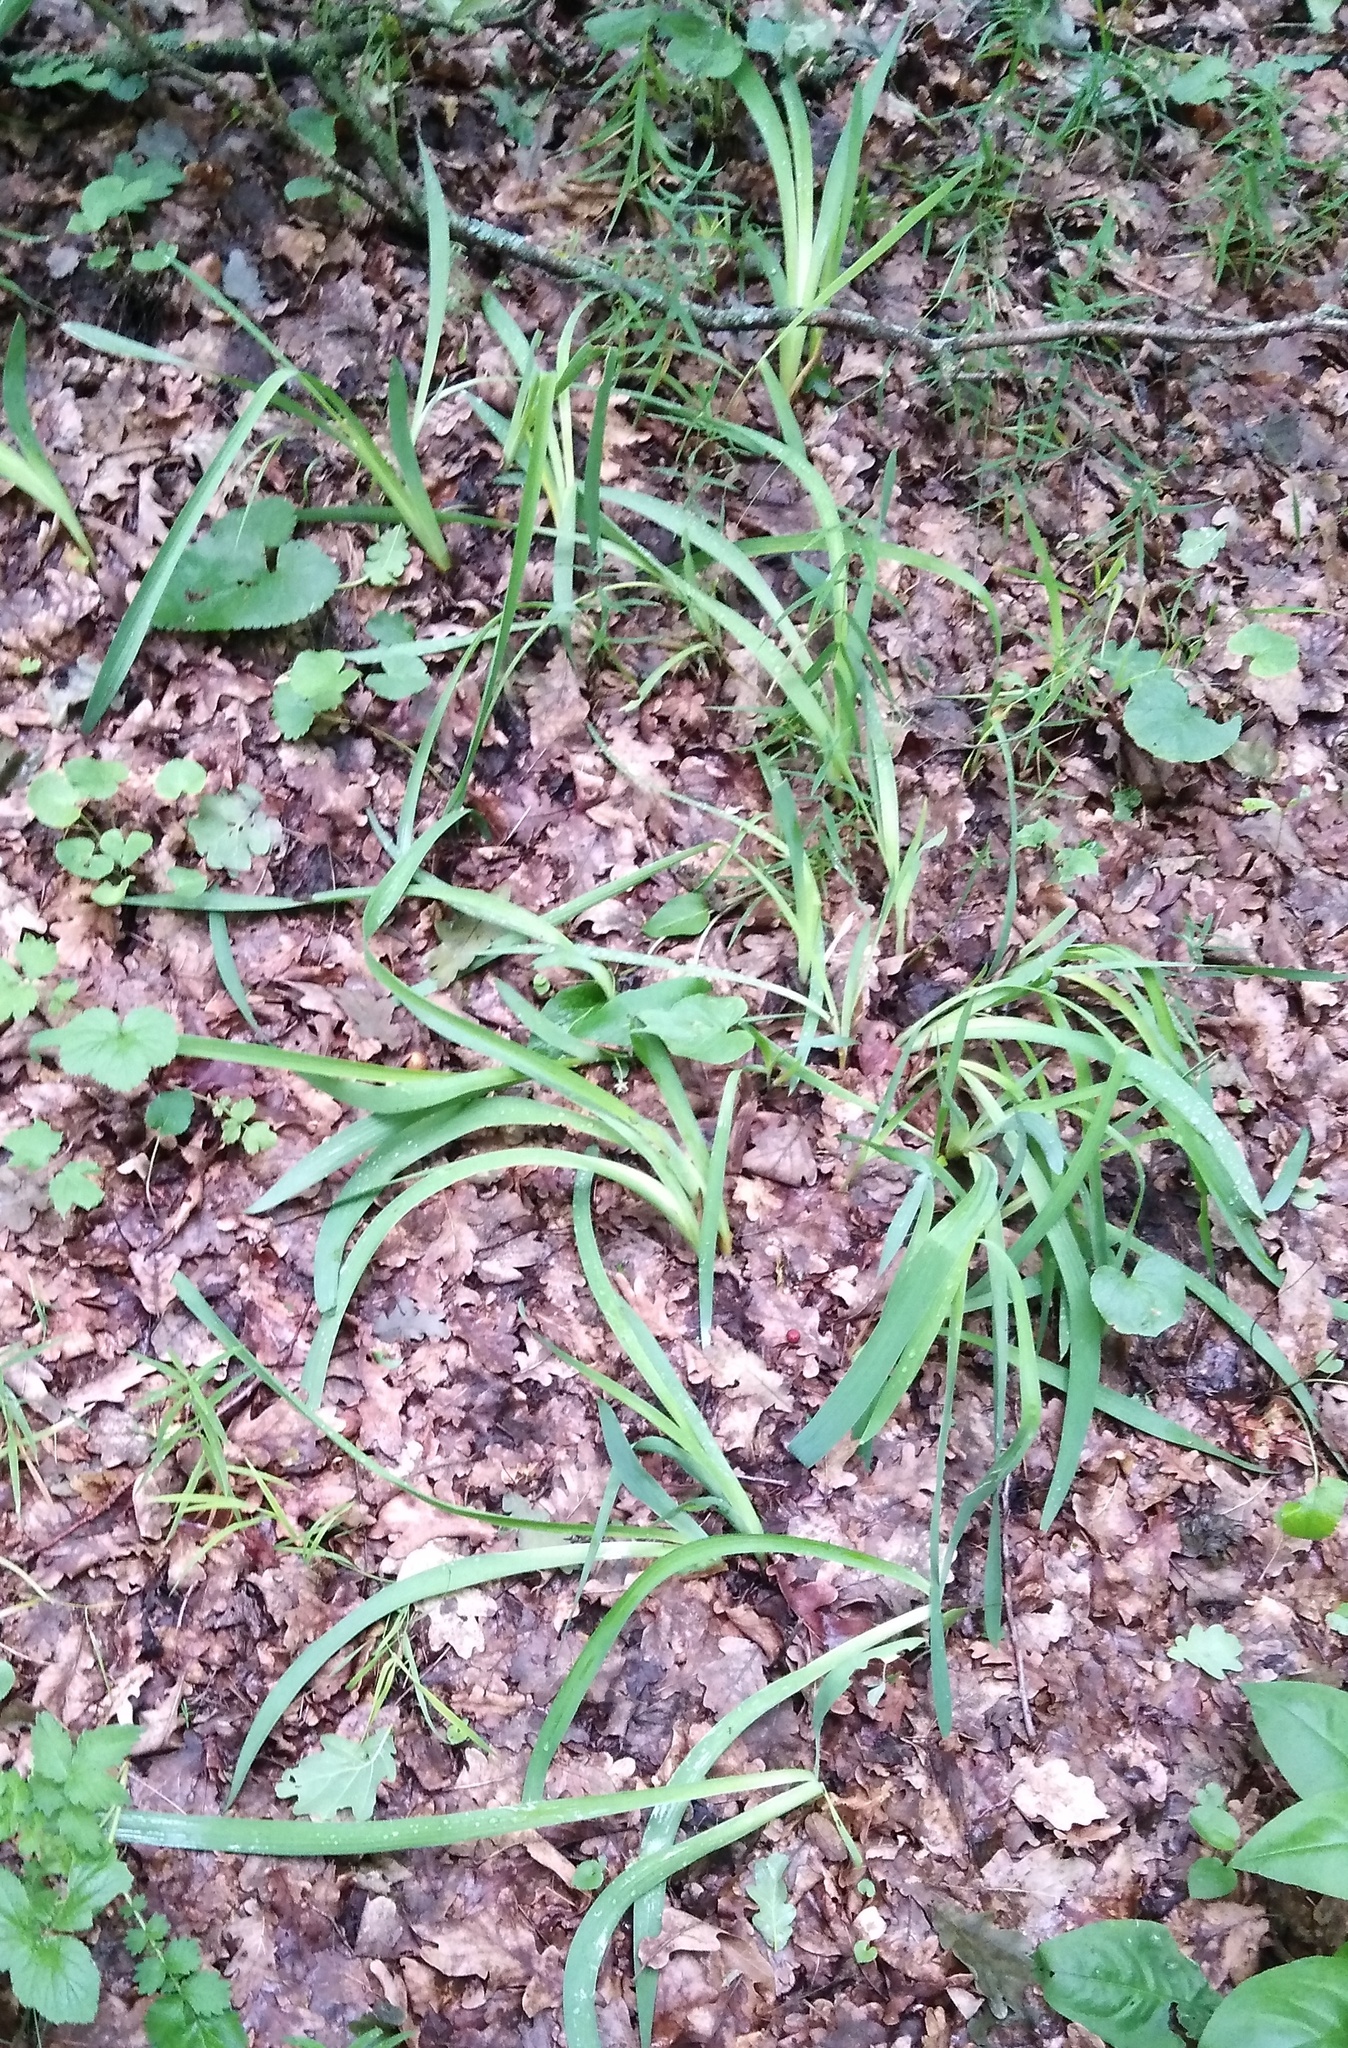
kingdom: Plantae
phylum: Tracheophyta
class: Liliopsida
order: Asparagales
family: Iridaceae
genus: Iris
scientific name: Iris aphylla
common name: Stool iris
